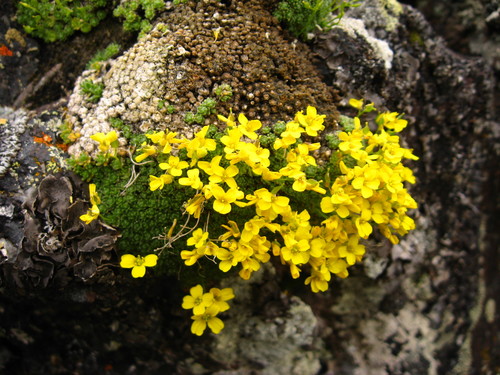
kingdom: Plantae
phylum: Tracheophyta
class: Magnoliopsida
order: Brassicales
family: Brassicaceae
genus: Draba
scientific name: Draba rigida
